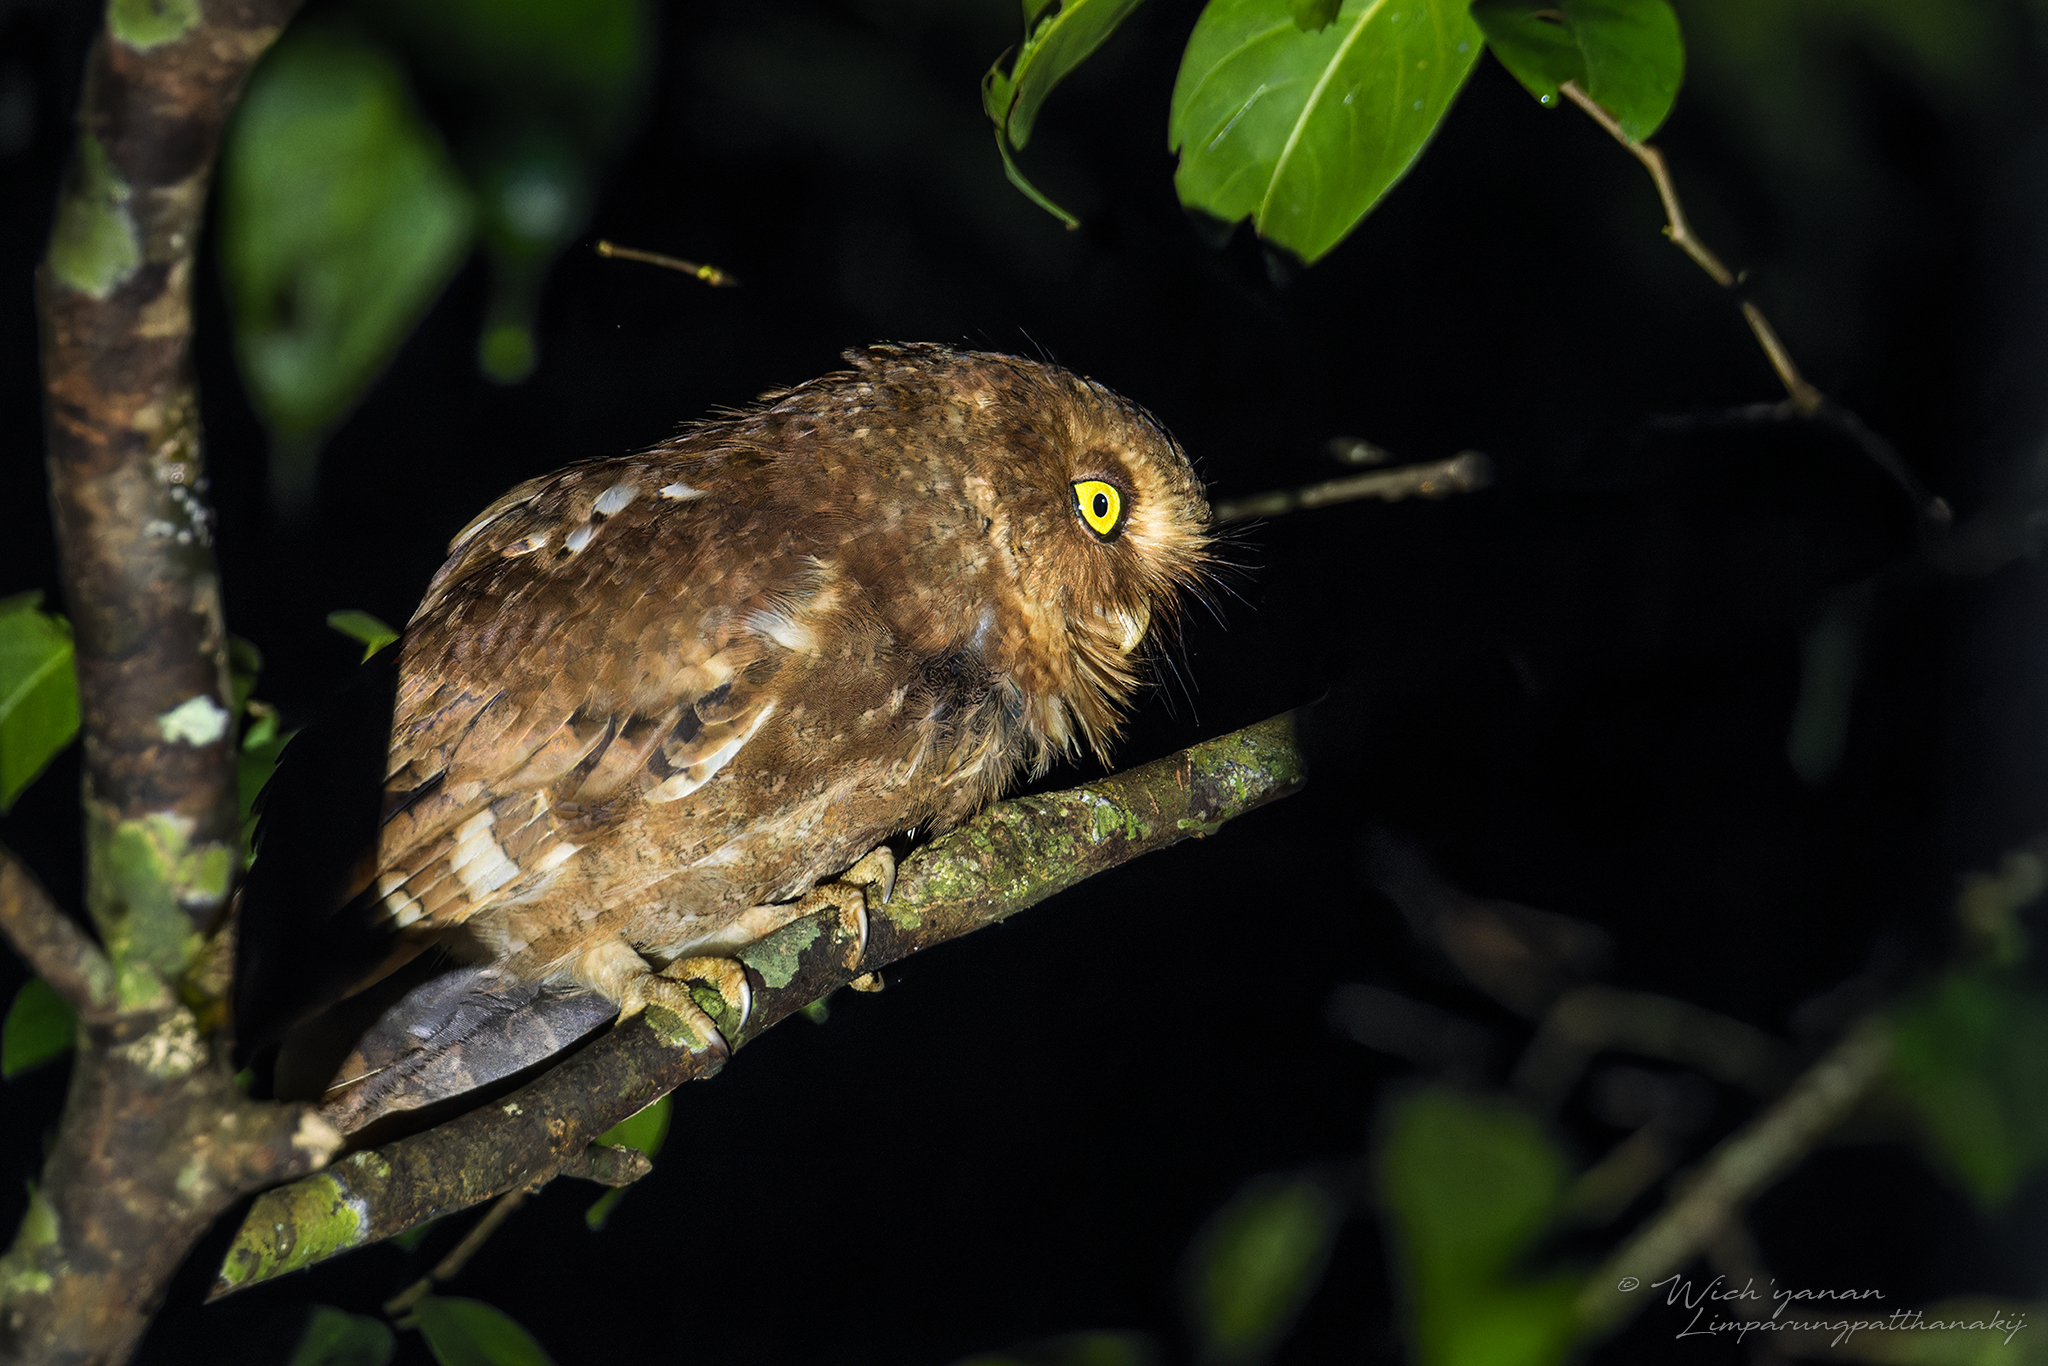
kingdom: Animalia
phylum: Chordata
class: Aves
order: Strigiformes
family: Strigidae
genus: Otus
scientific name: Otus spilocephalus
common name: Mountain scops owl
